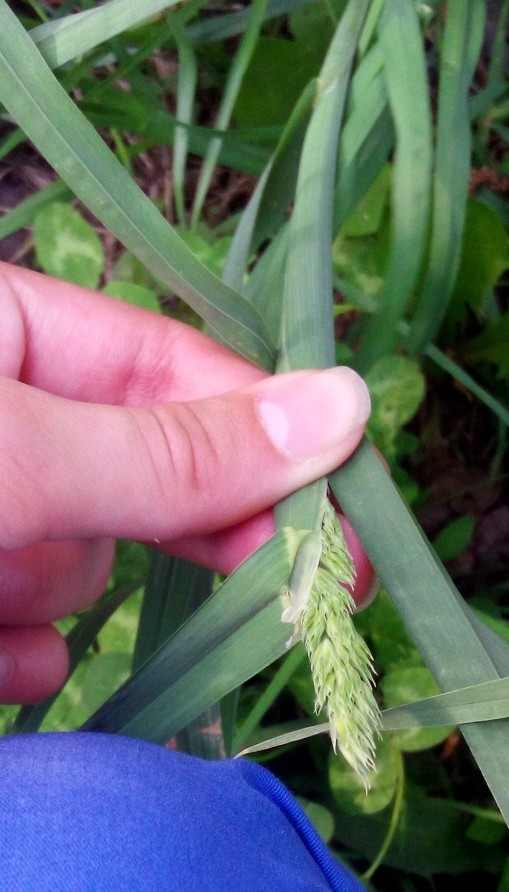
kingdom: Plantae
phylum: Tracheophyta
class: Liliopsida
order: Poales
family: Poaceae
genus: Dactylis
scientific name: Dactylis glomerata
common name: Orchardgrass
